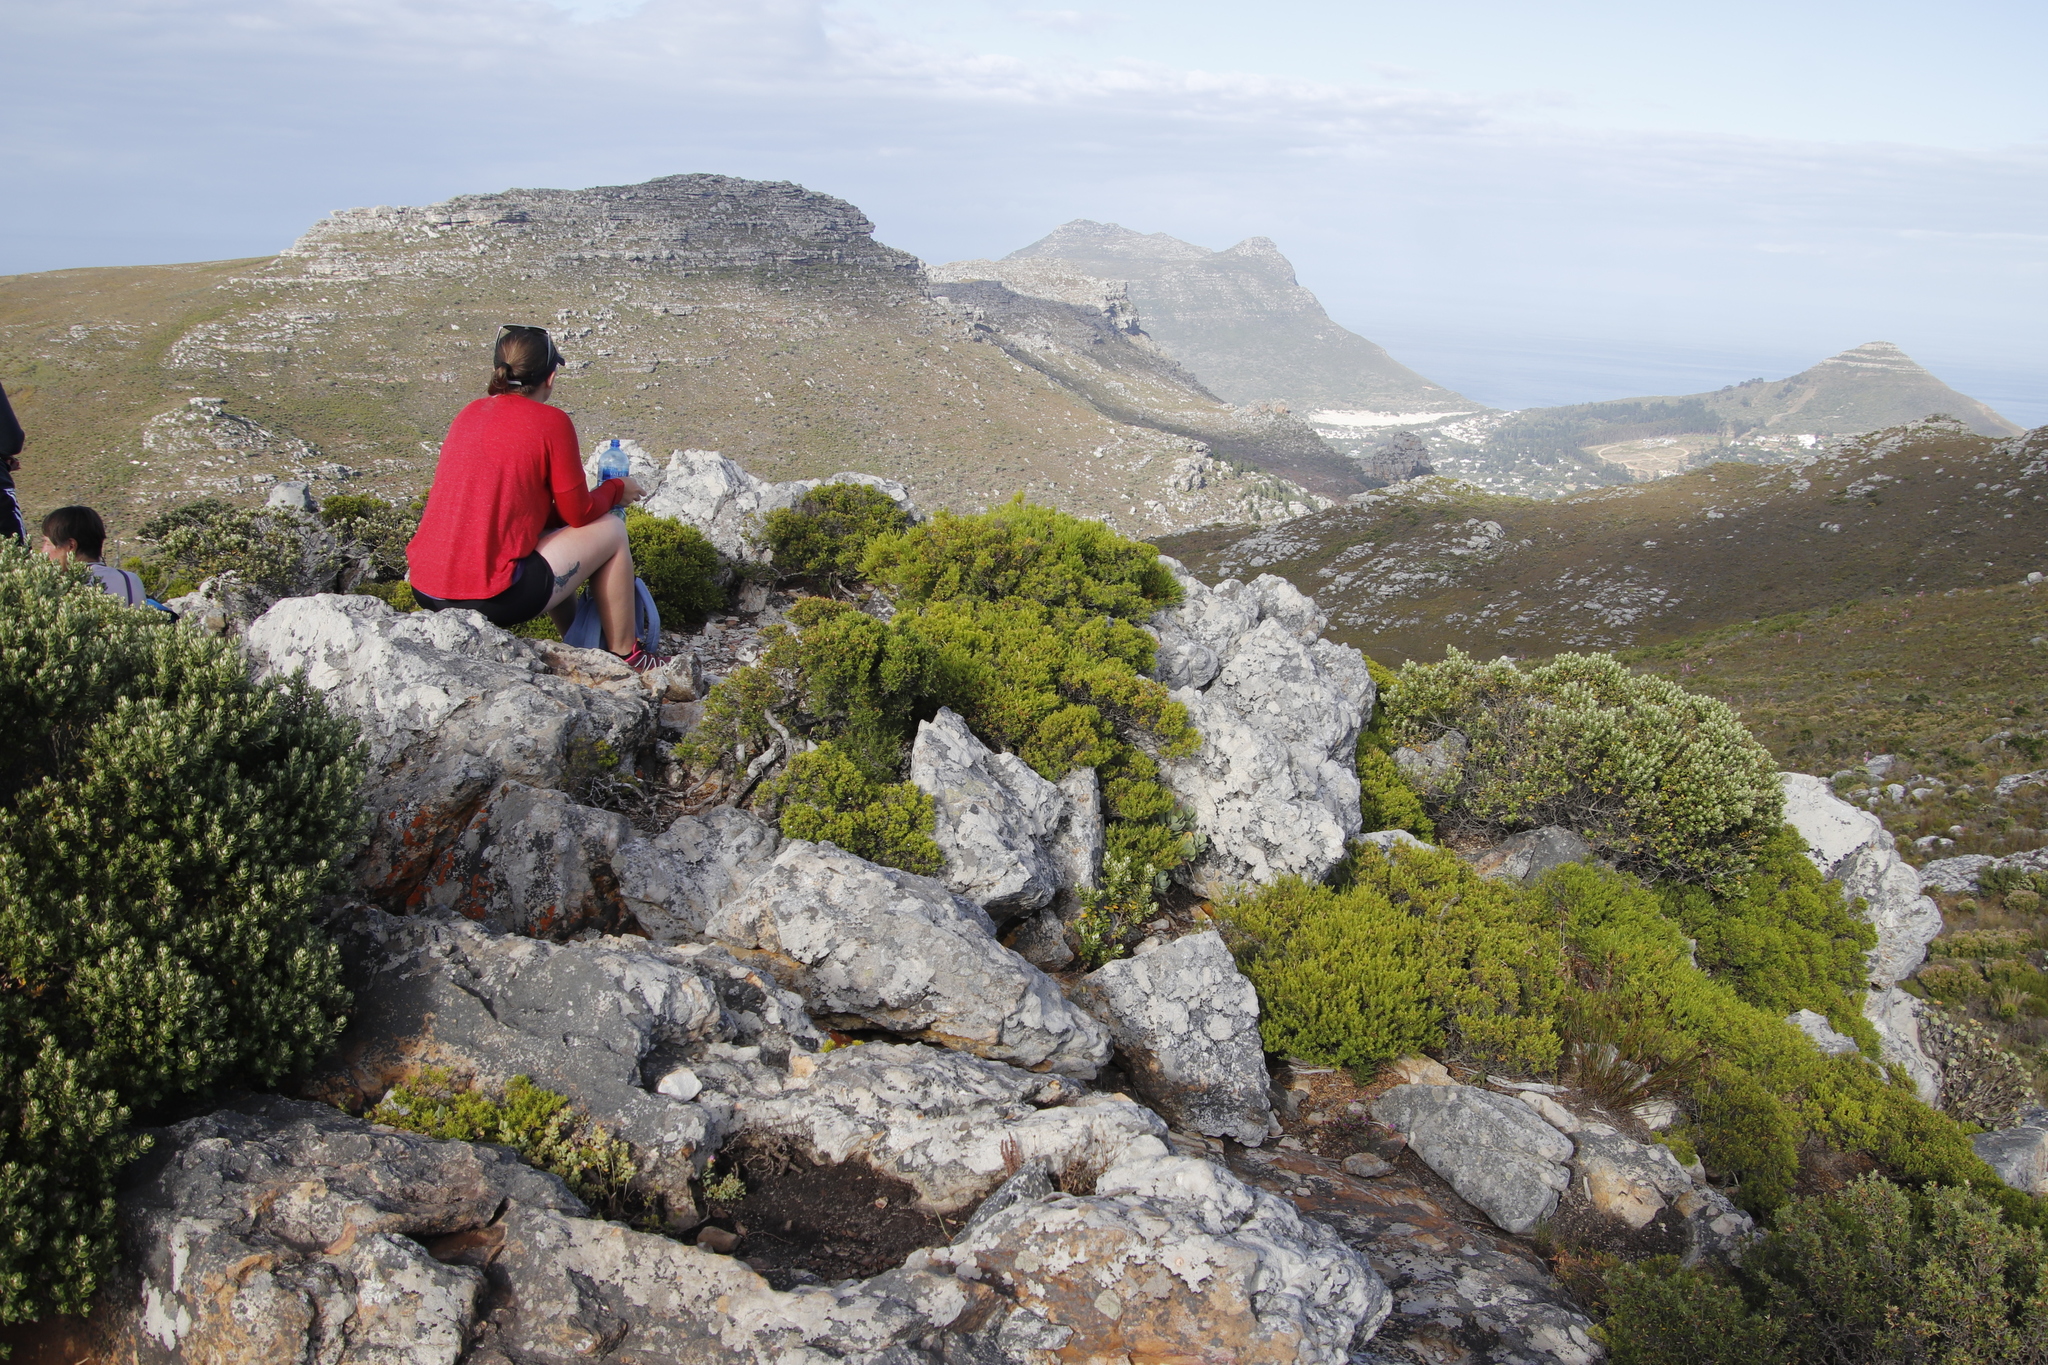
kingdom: Plantae
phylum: Tracheophyta
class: Magnoliopsida
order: Sapindales
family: Rutaceae
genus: Coleonema
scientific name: Coleonema album
